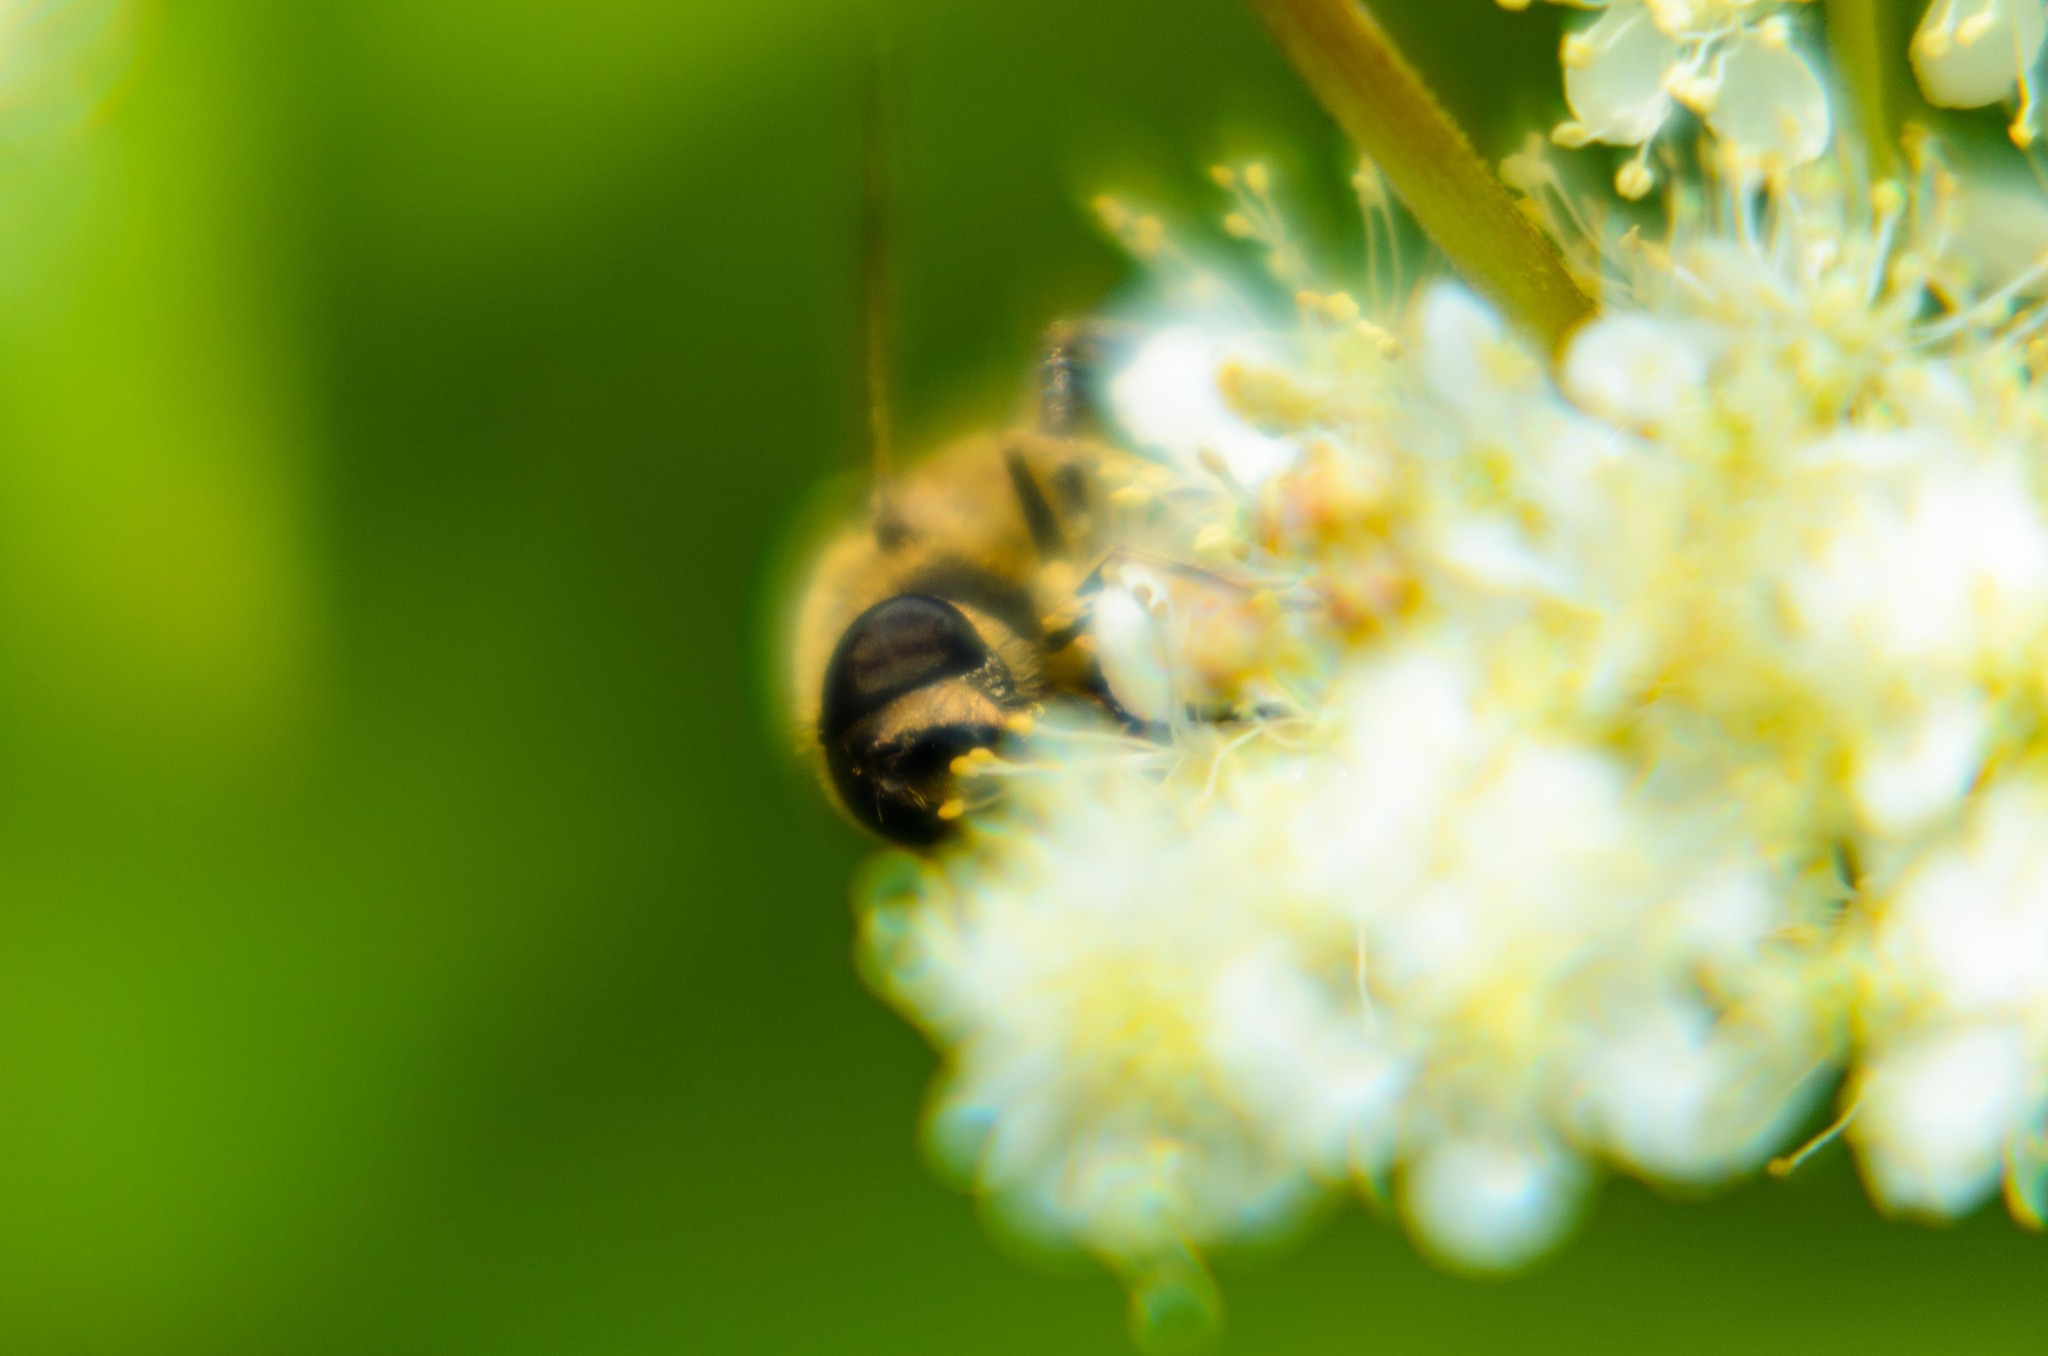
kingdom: Animalia
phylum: Arthropoda
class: Insecta
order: Diptera
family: Syrphidae
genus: Eristalis
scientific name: Eristalis tenax
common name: Drone fly
